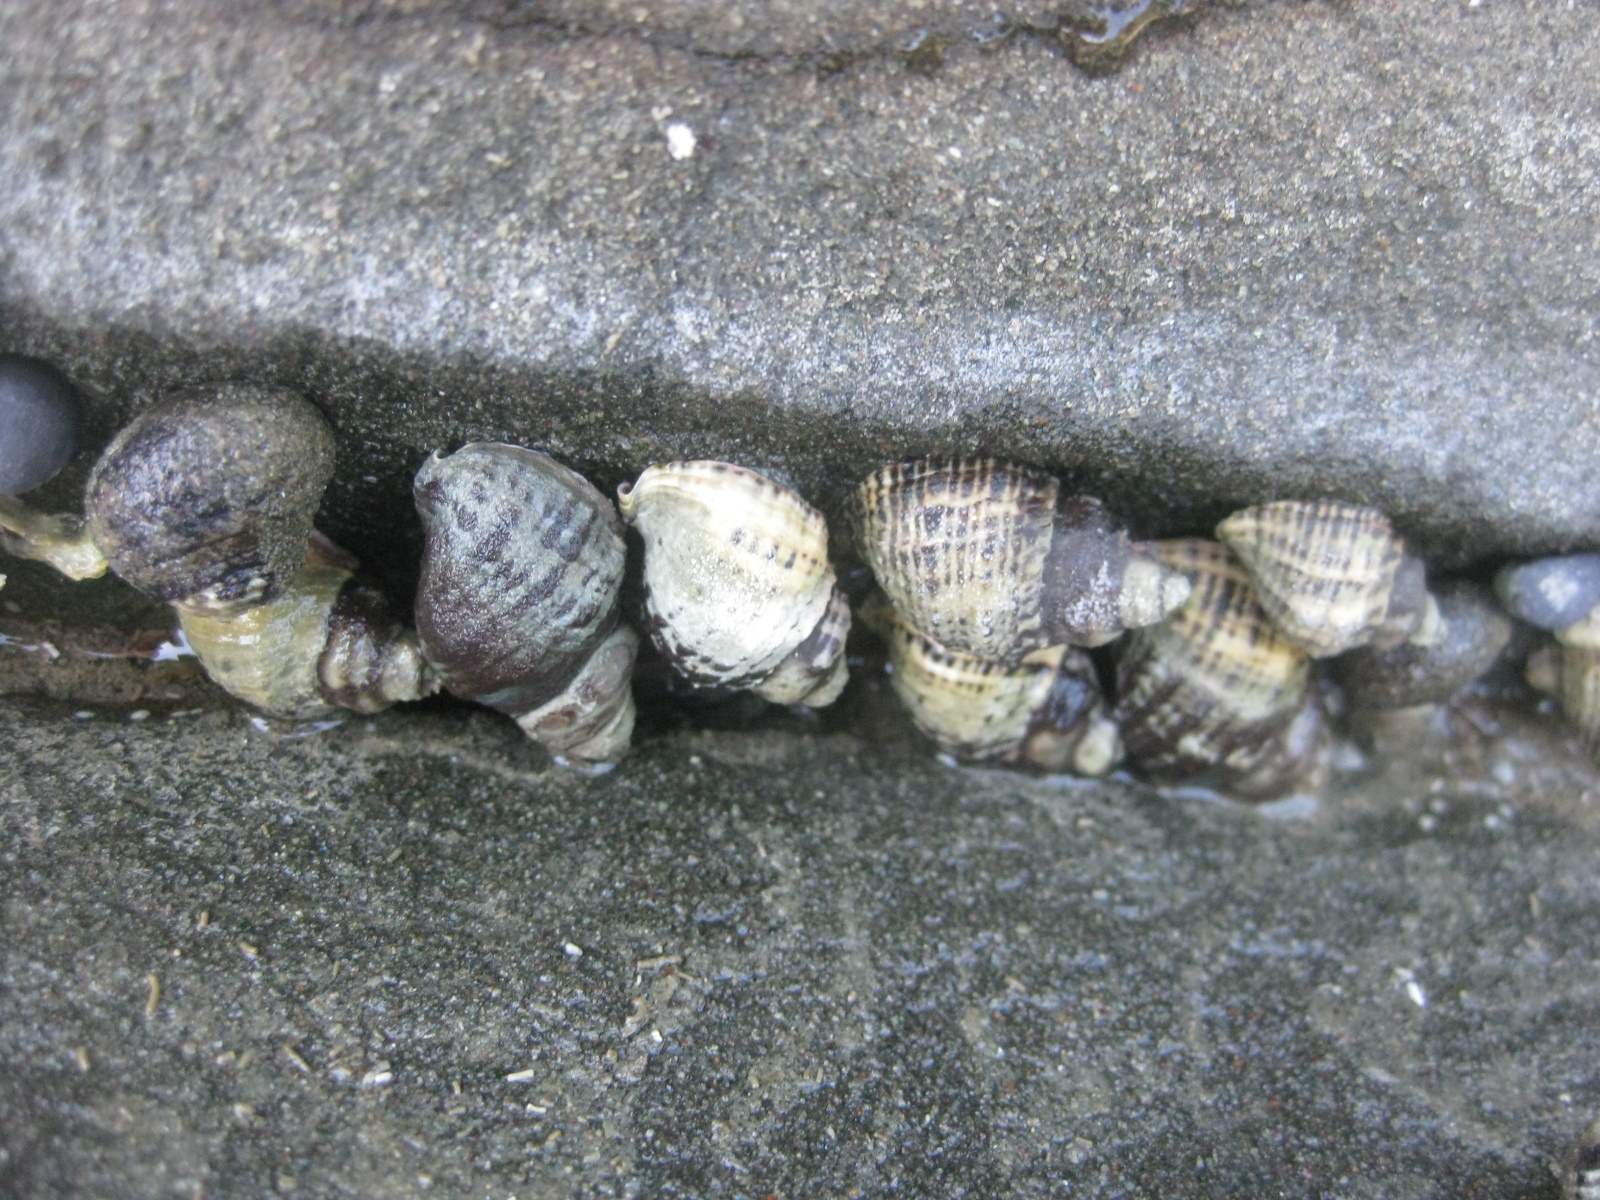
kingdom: Animalia
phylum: Mollusca
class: Gastropoda
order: Neogastropoda
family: Muricidae
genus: Haustrum
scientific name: Haustrum albomarginatum
